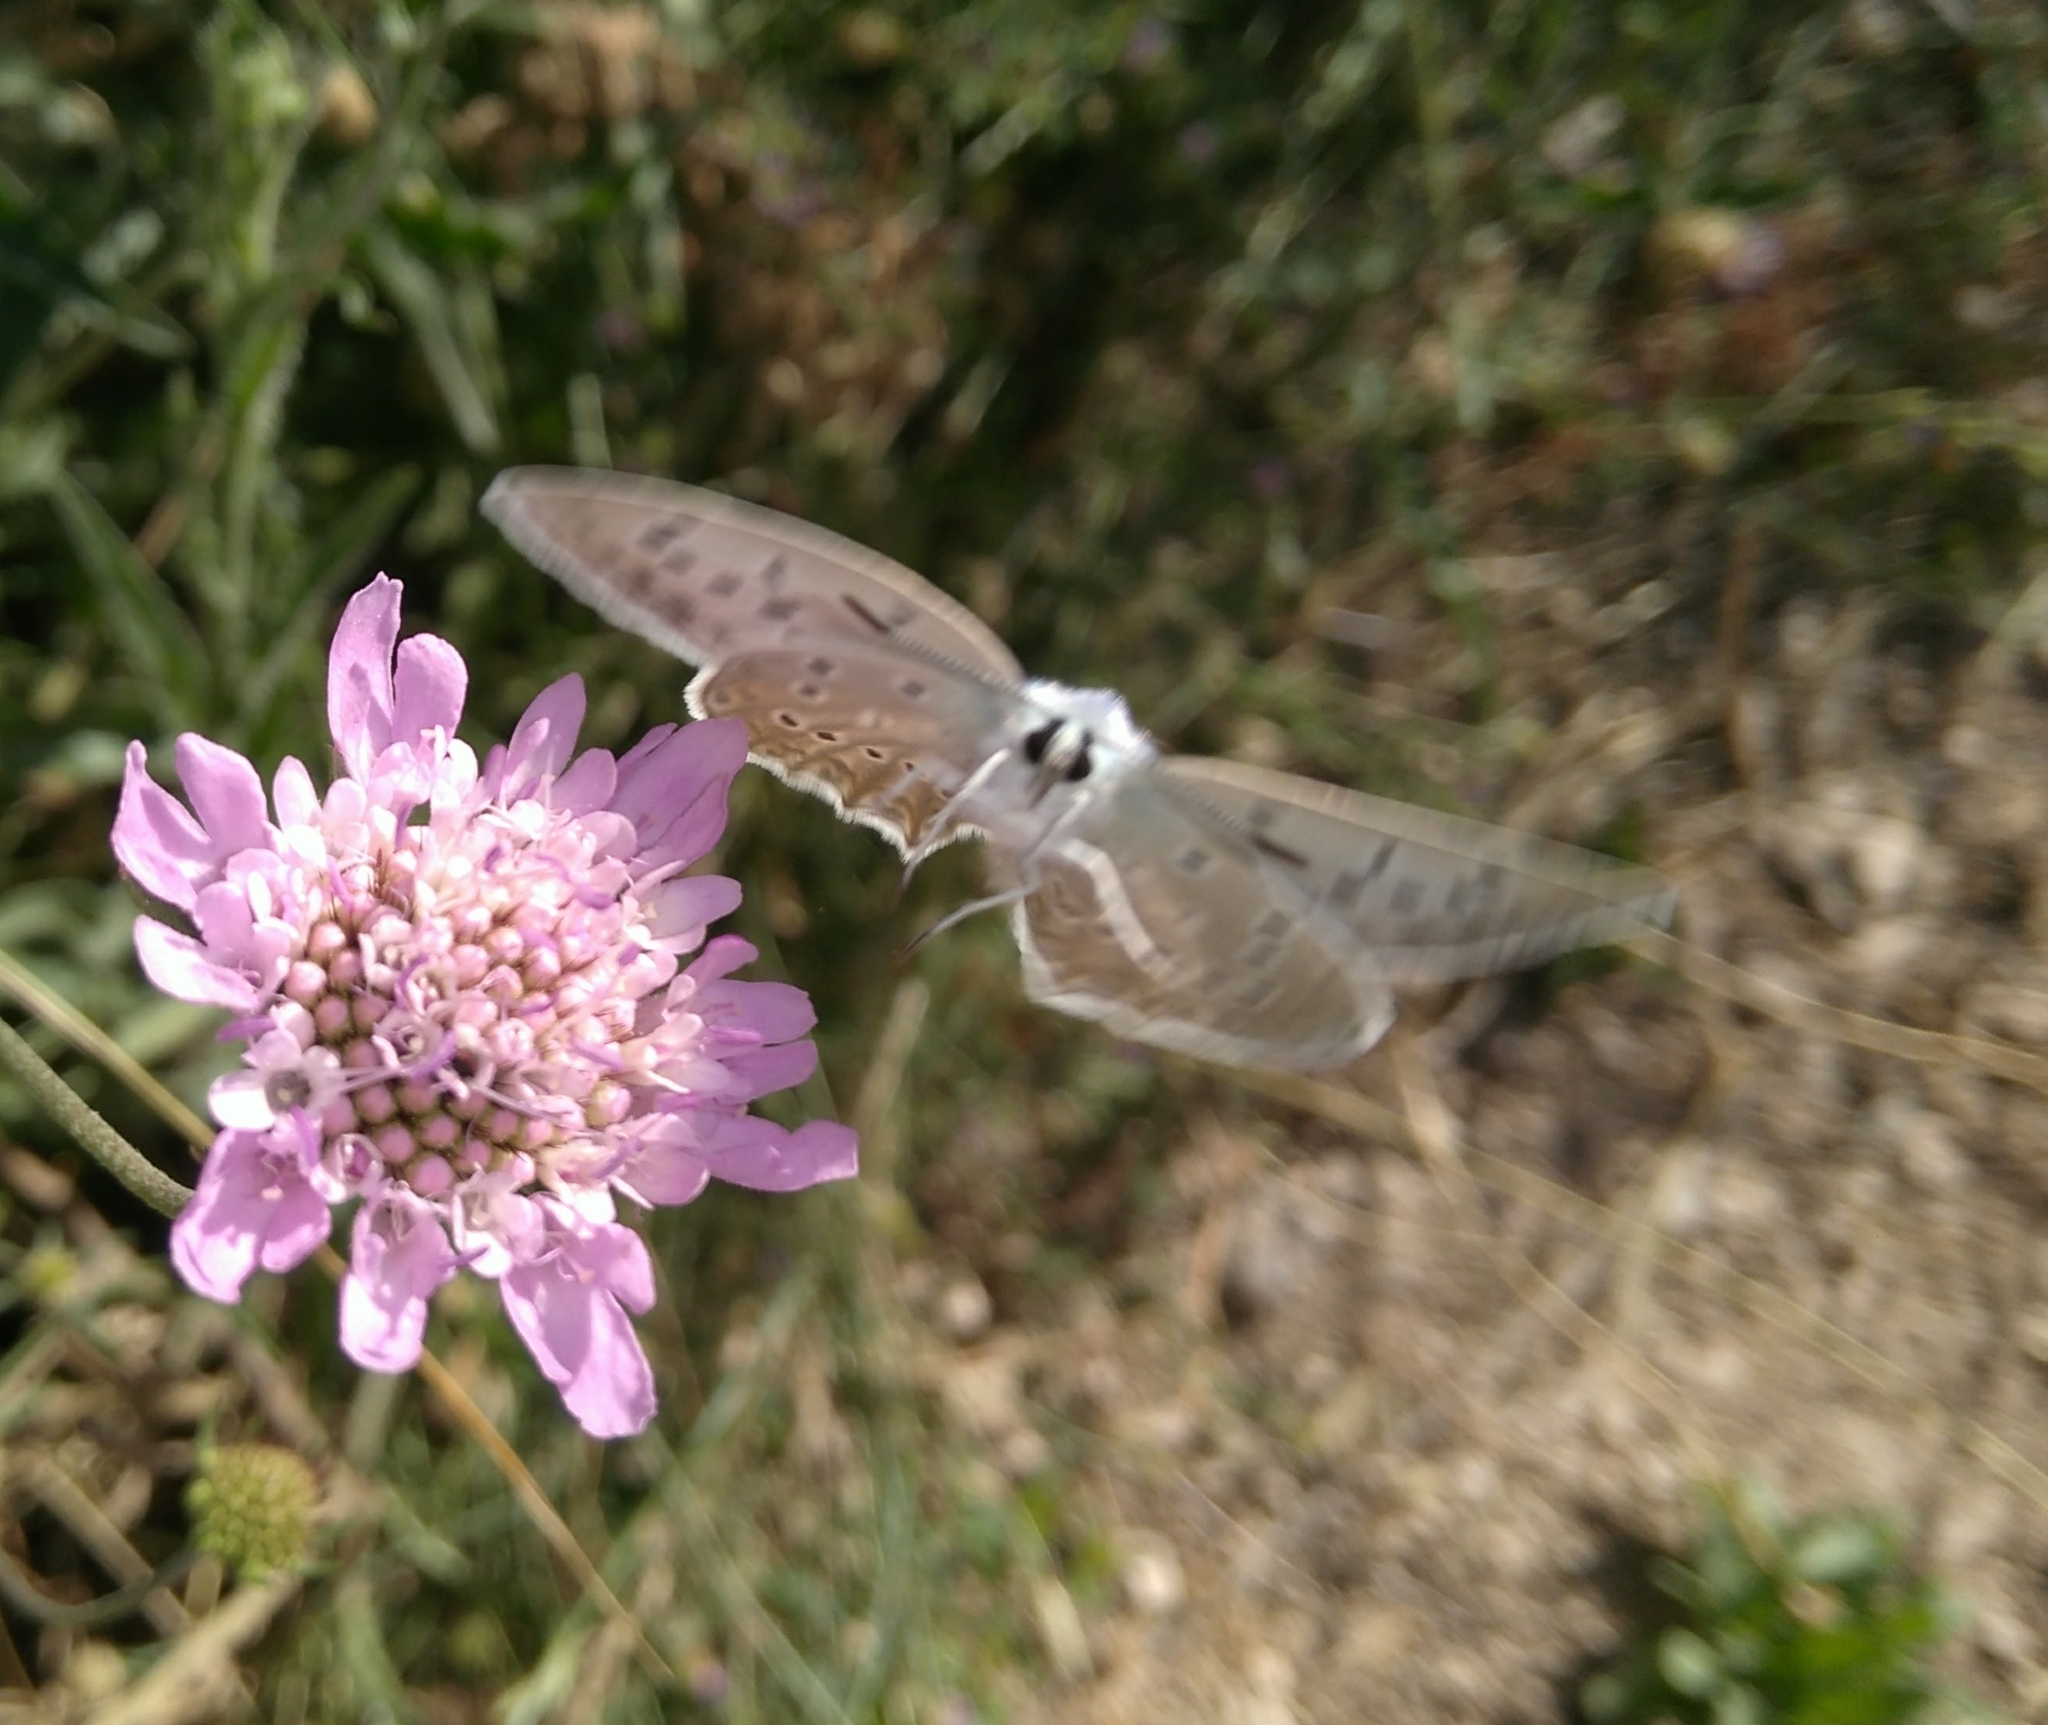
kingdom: Animalia
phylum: Arthropoda
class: Insecta
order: Lepidoptera
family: Lycaenidae
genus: Polyommatus
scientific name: Polyommatus daphnis
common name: Meleager's blue
